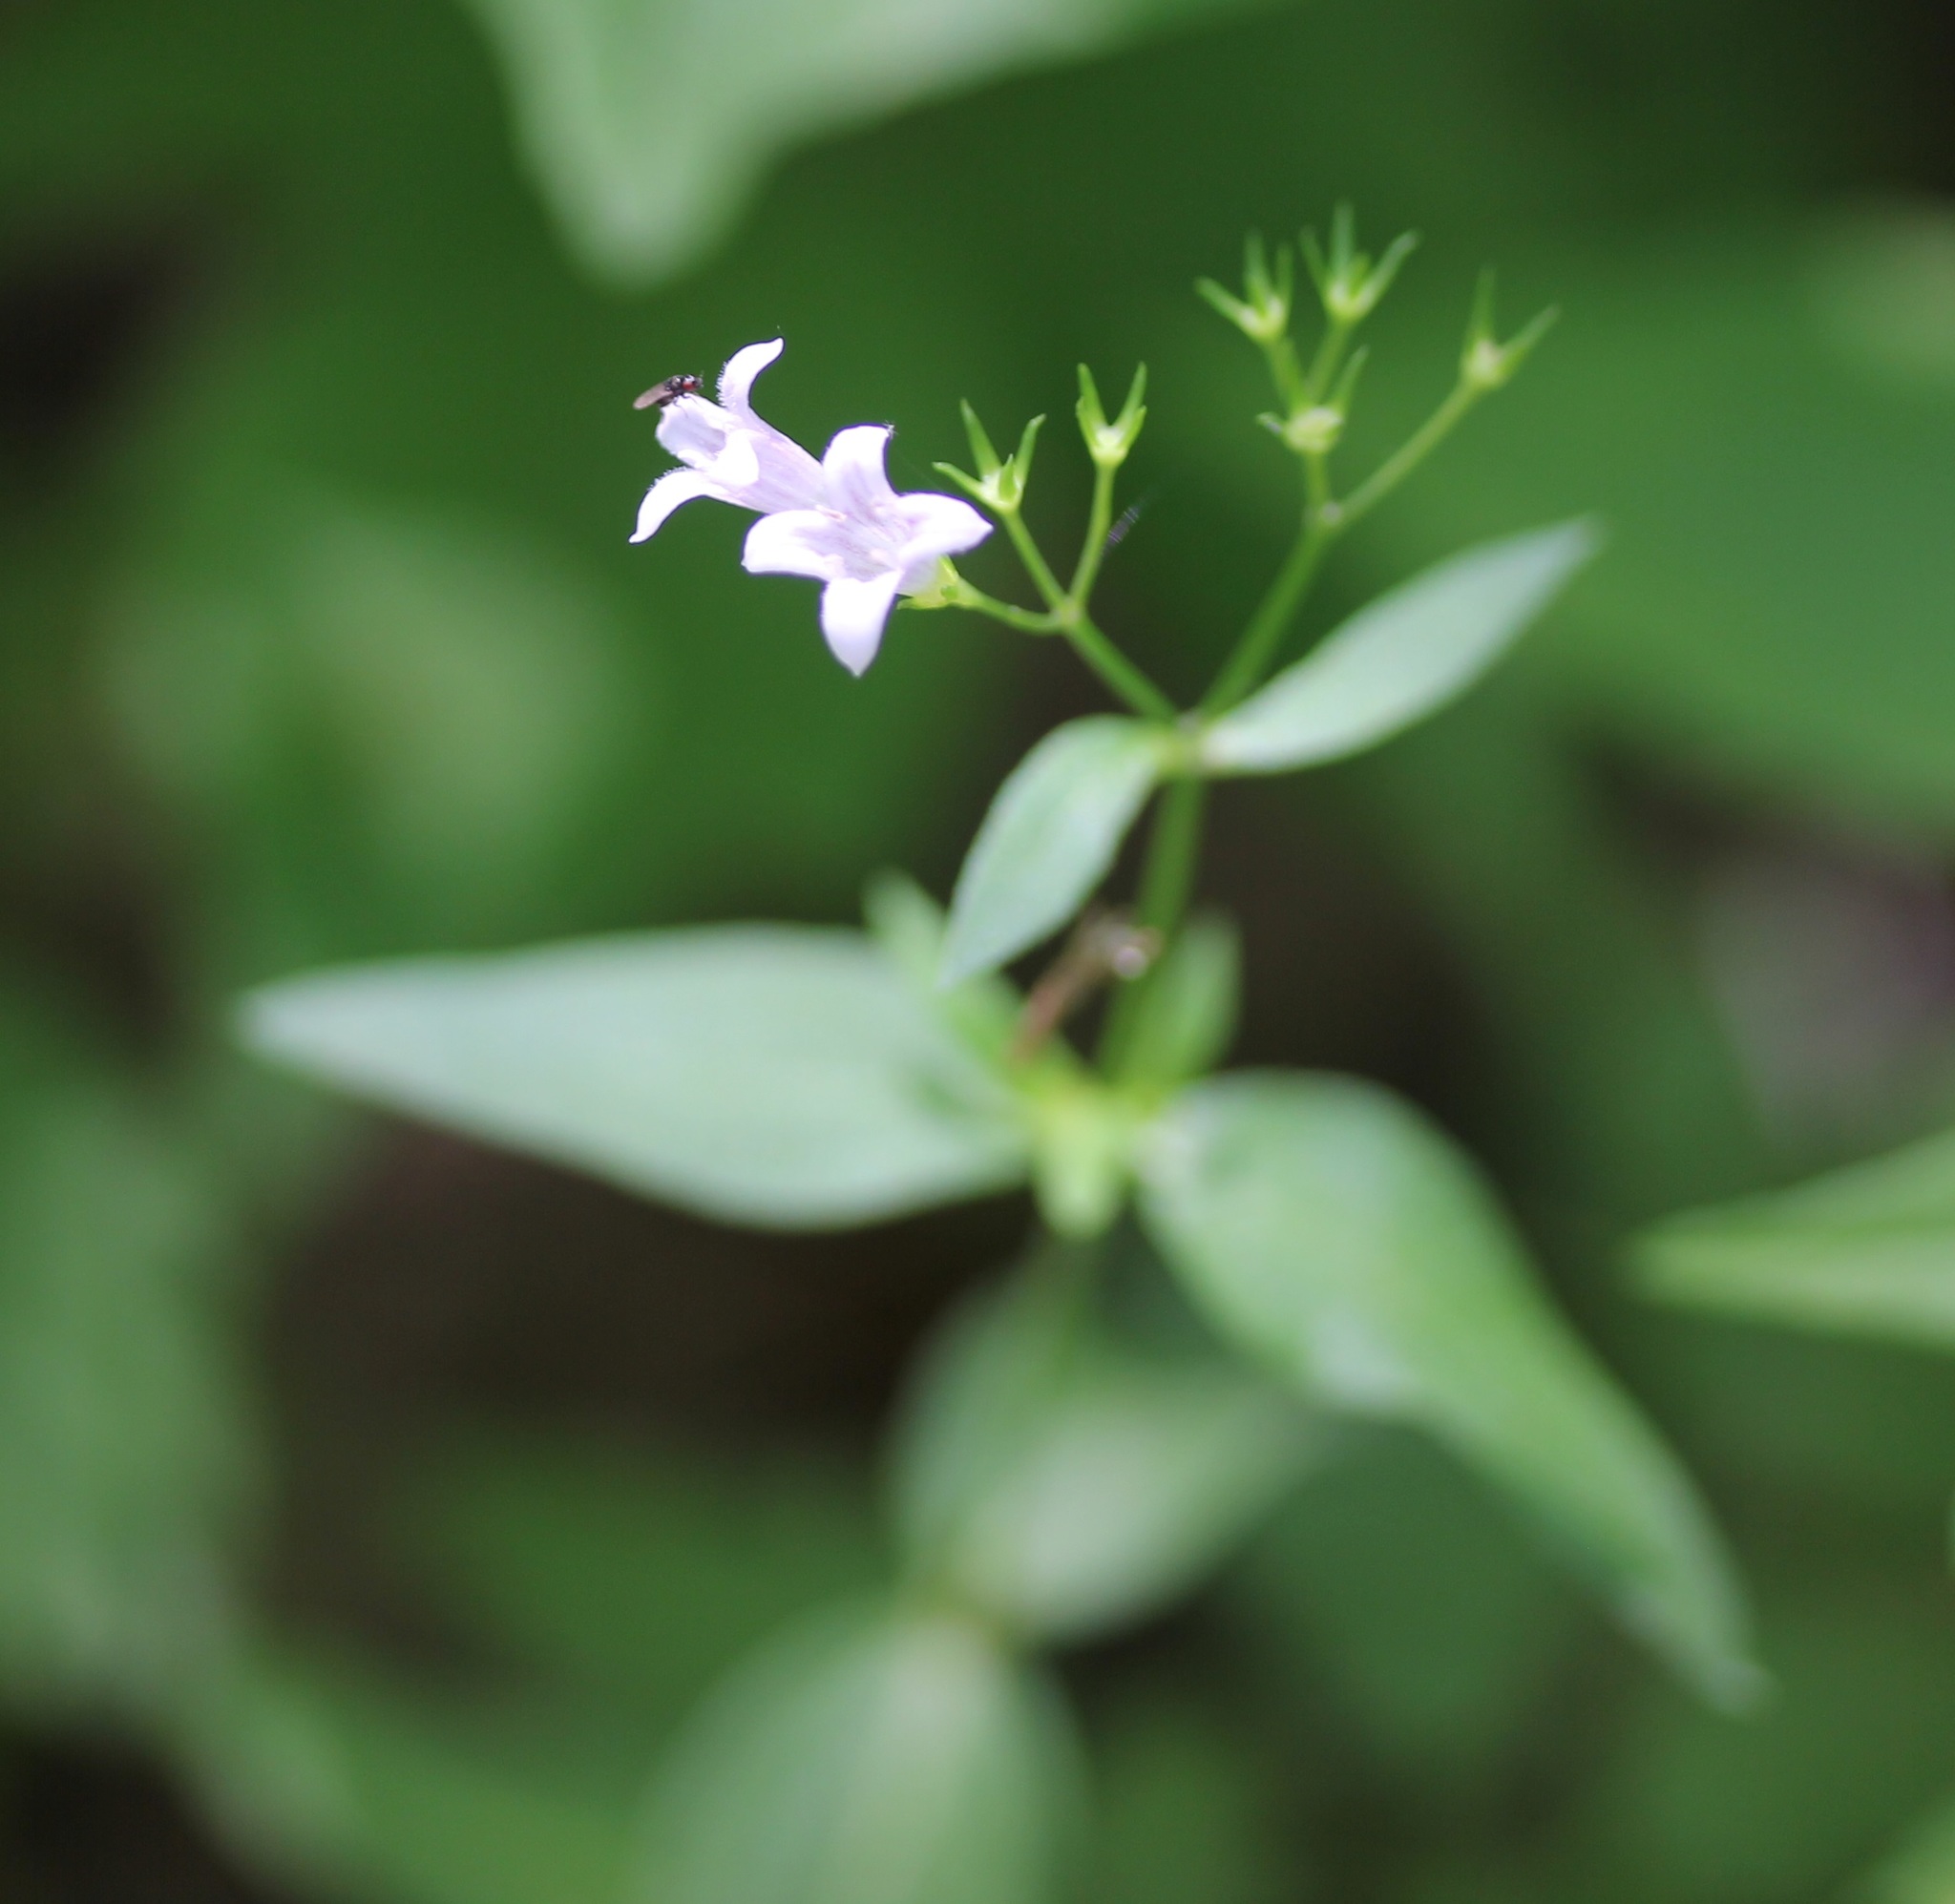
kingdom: Plantae
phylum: Tracheophyta
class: Magnoliopsida
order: Gentianales
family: Rubiaceae
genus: Houstonia
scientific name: Houstonia purpurea
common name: Summer bluet
